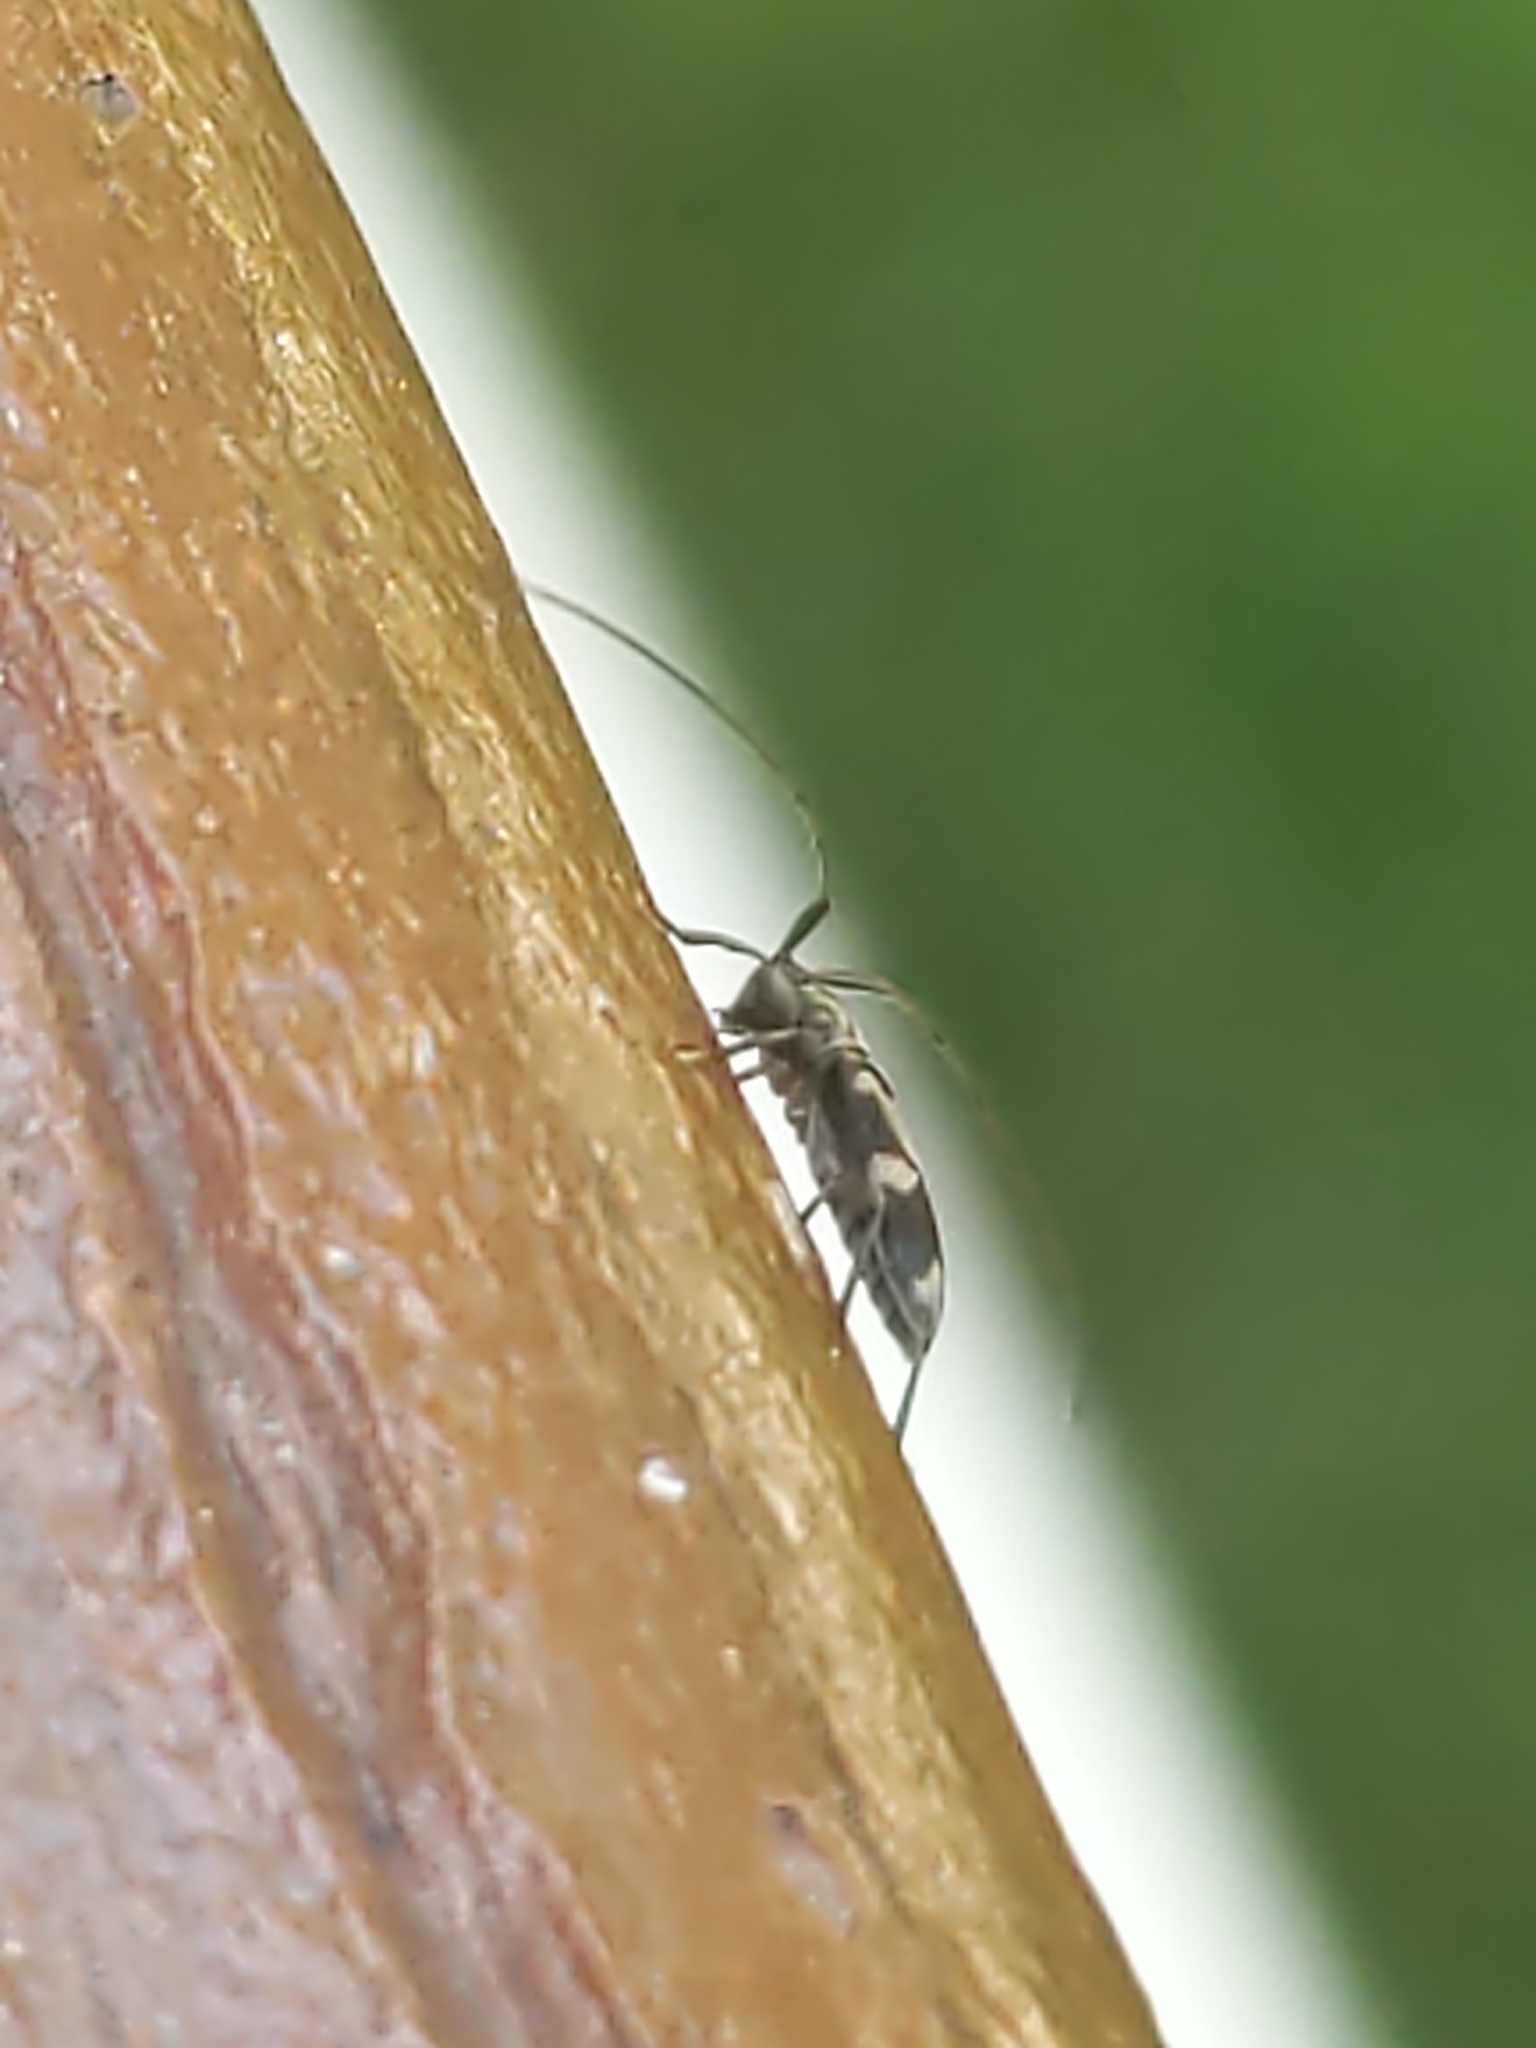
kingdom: Animalia
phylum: Arthropoda
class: Insecta
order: Coleoptera
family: Cerambycidae
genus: Urgleptes
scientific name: Urgleptes querci
